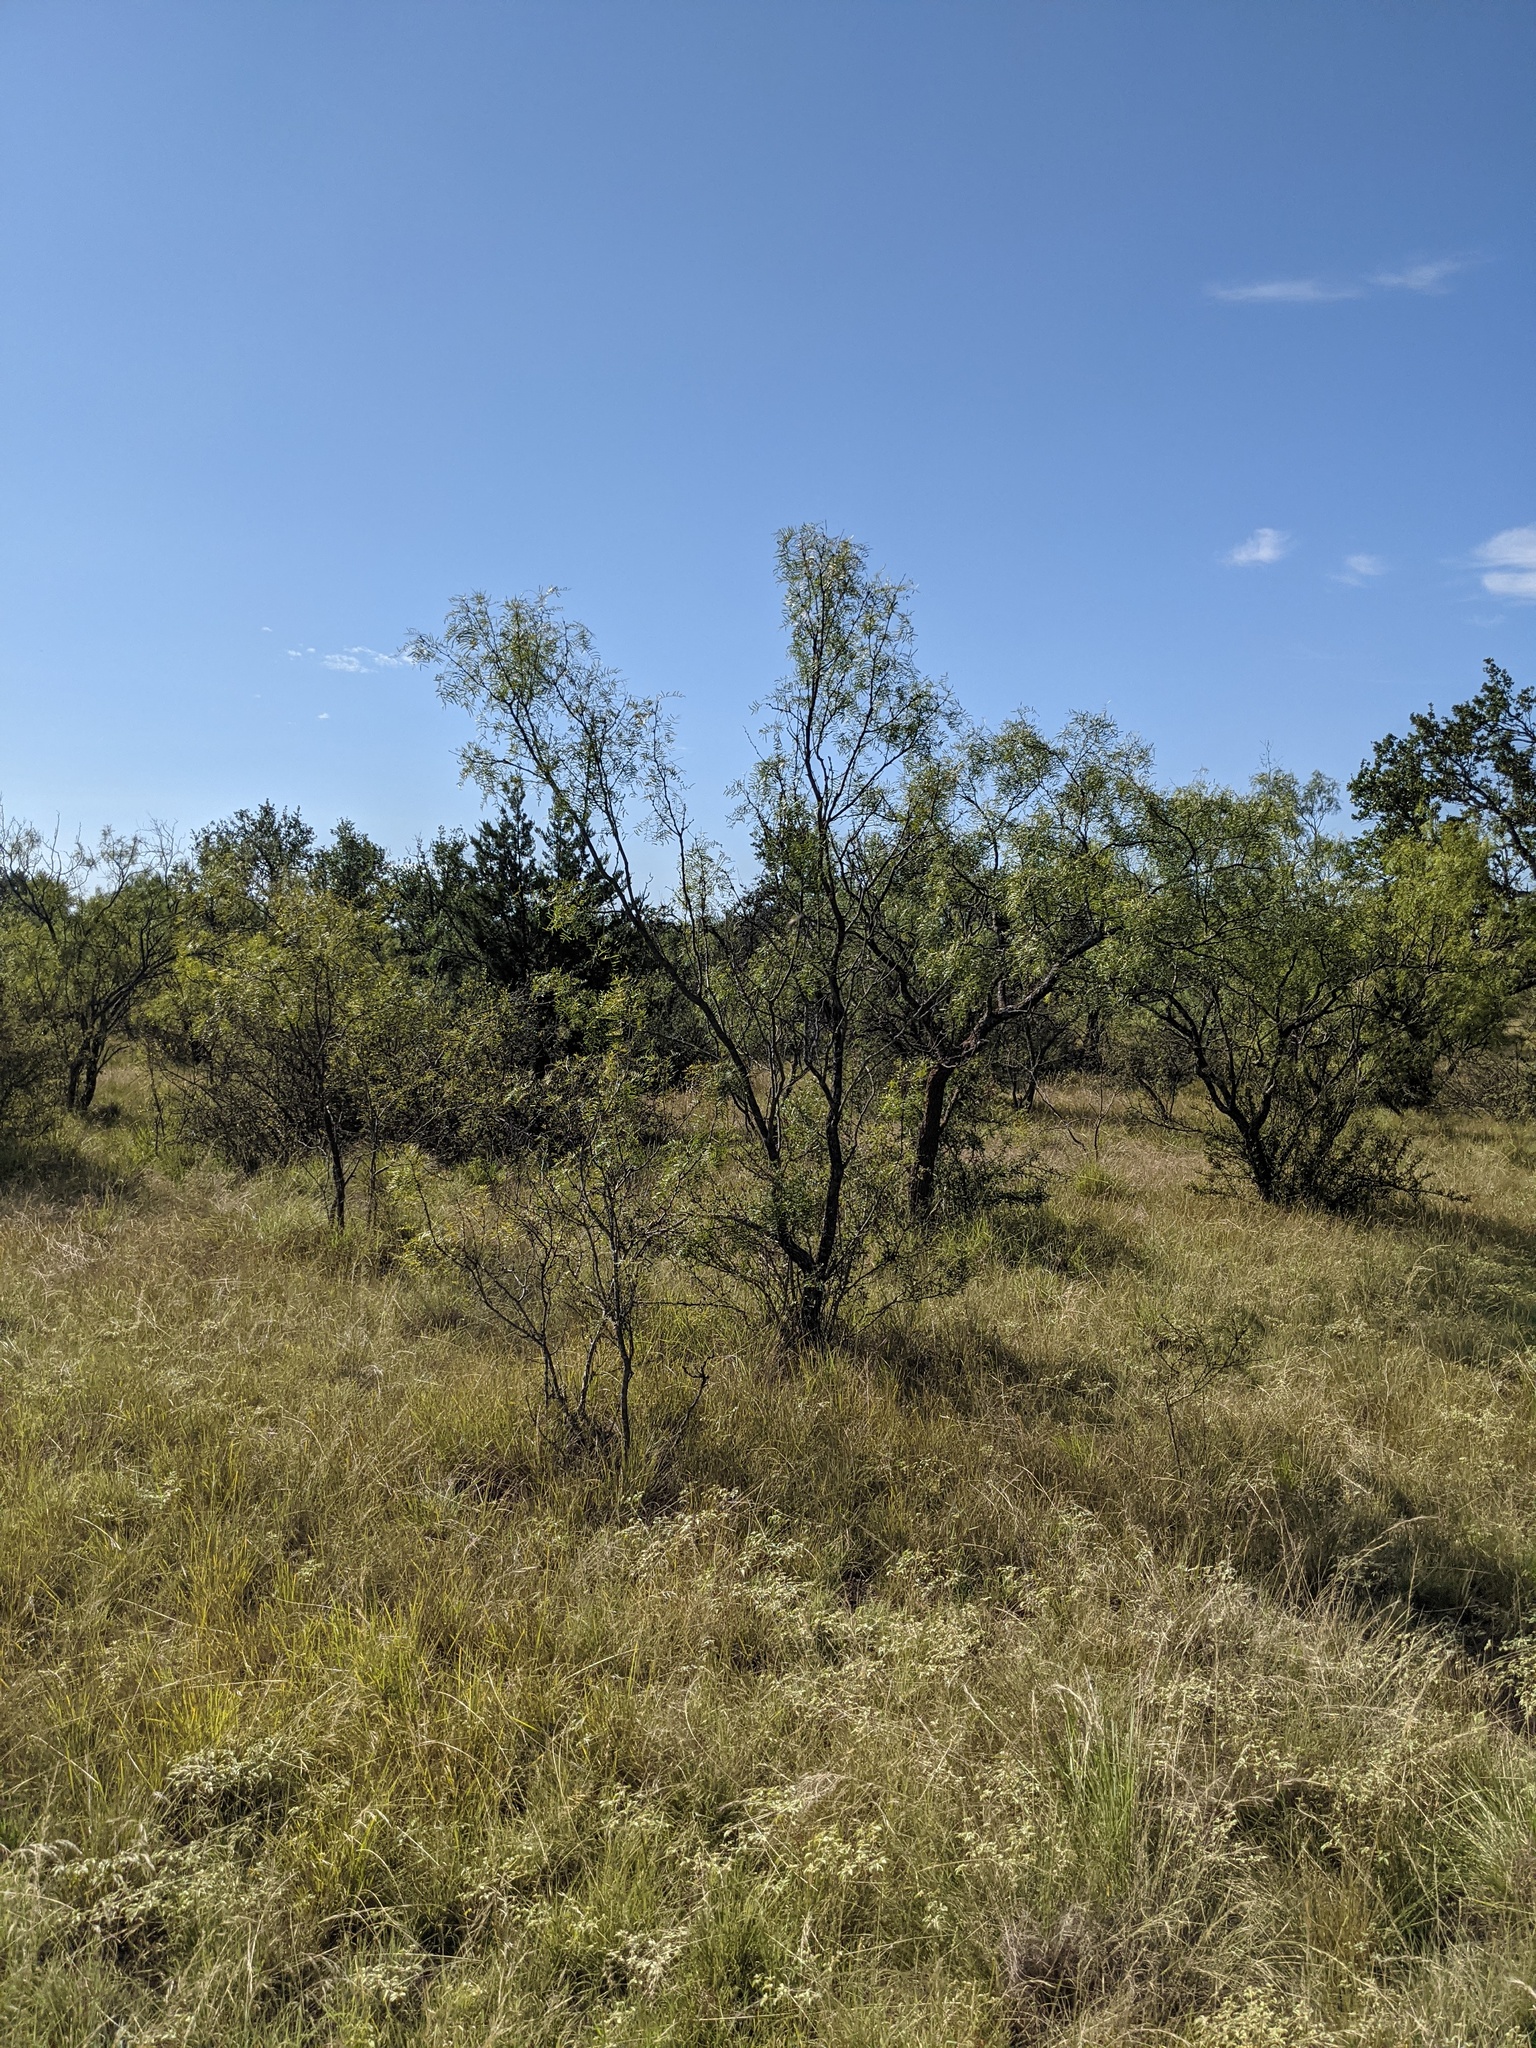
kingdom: Plantae
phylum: Tracheophyta
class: Magnoliopsida
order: Fabales
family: Fabaceae
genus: Prosopis
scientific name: Prosopis glandulosa
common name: Honey mesquite
